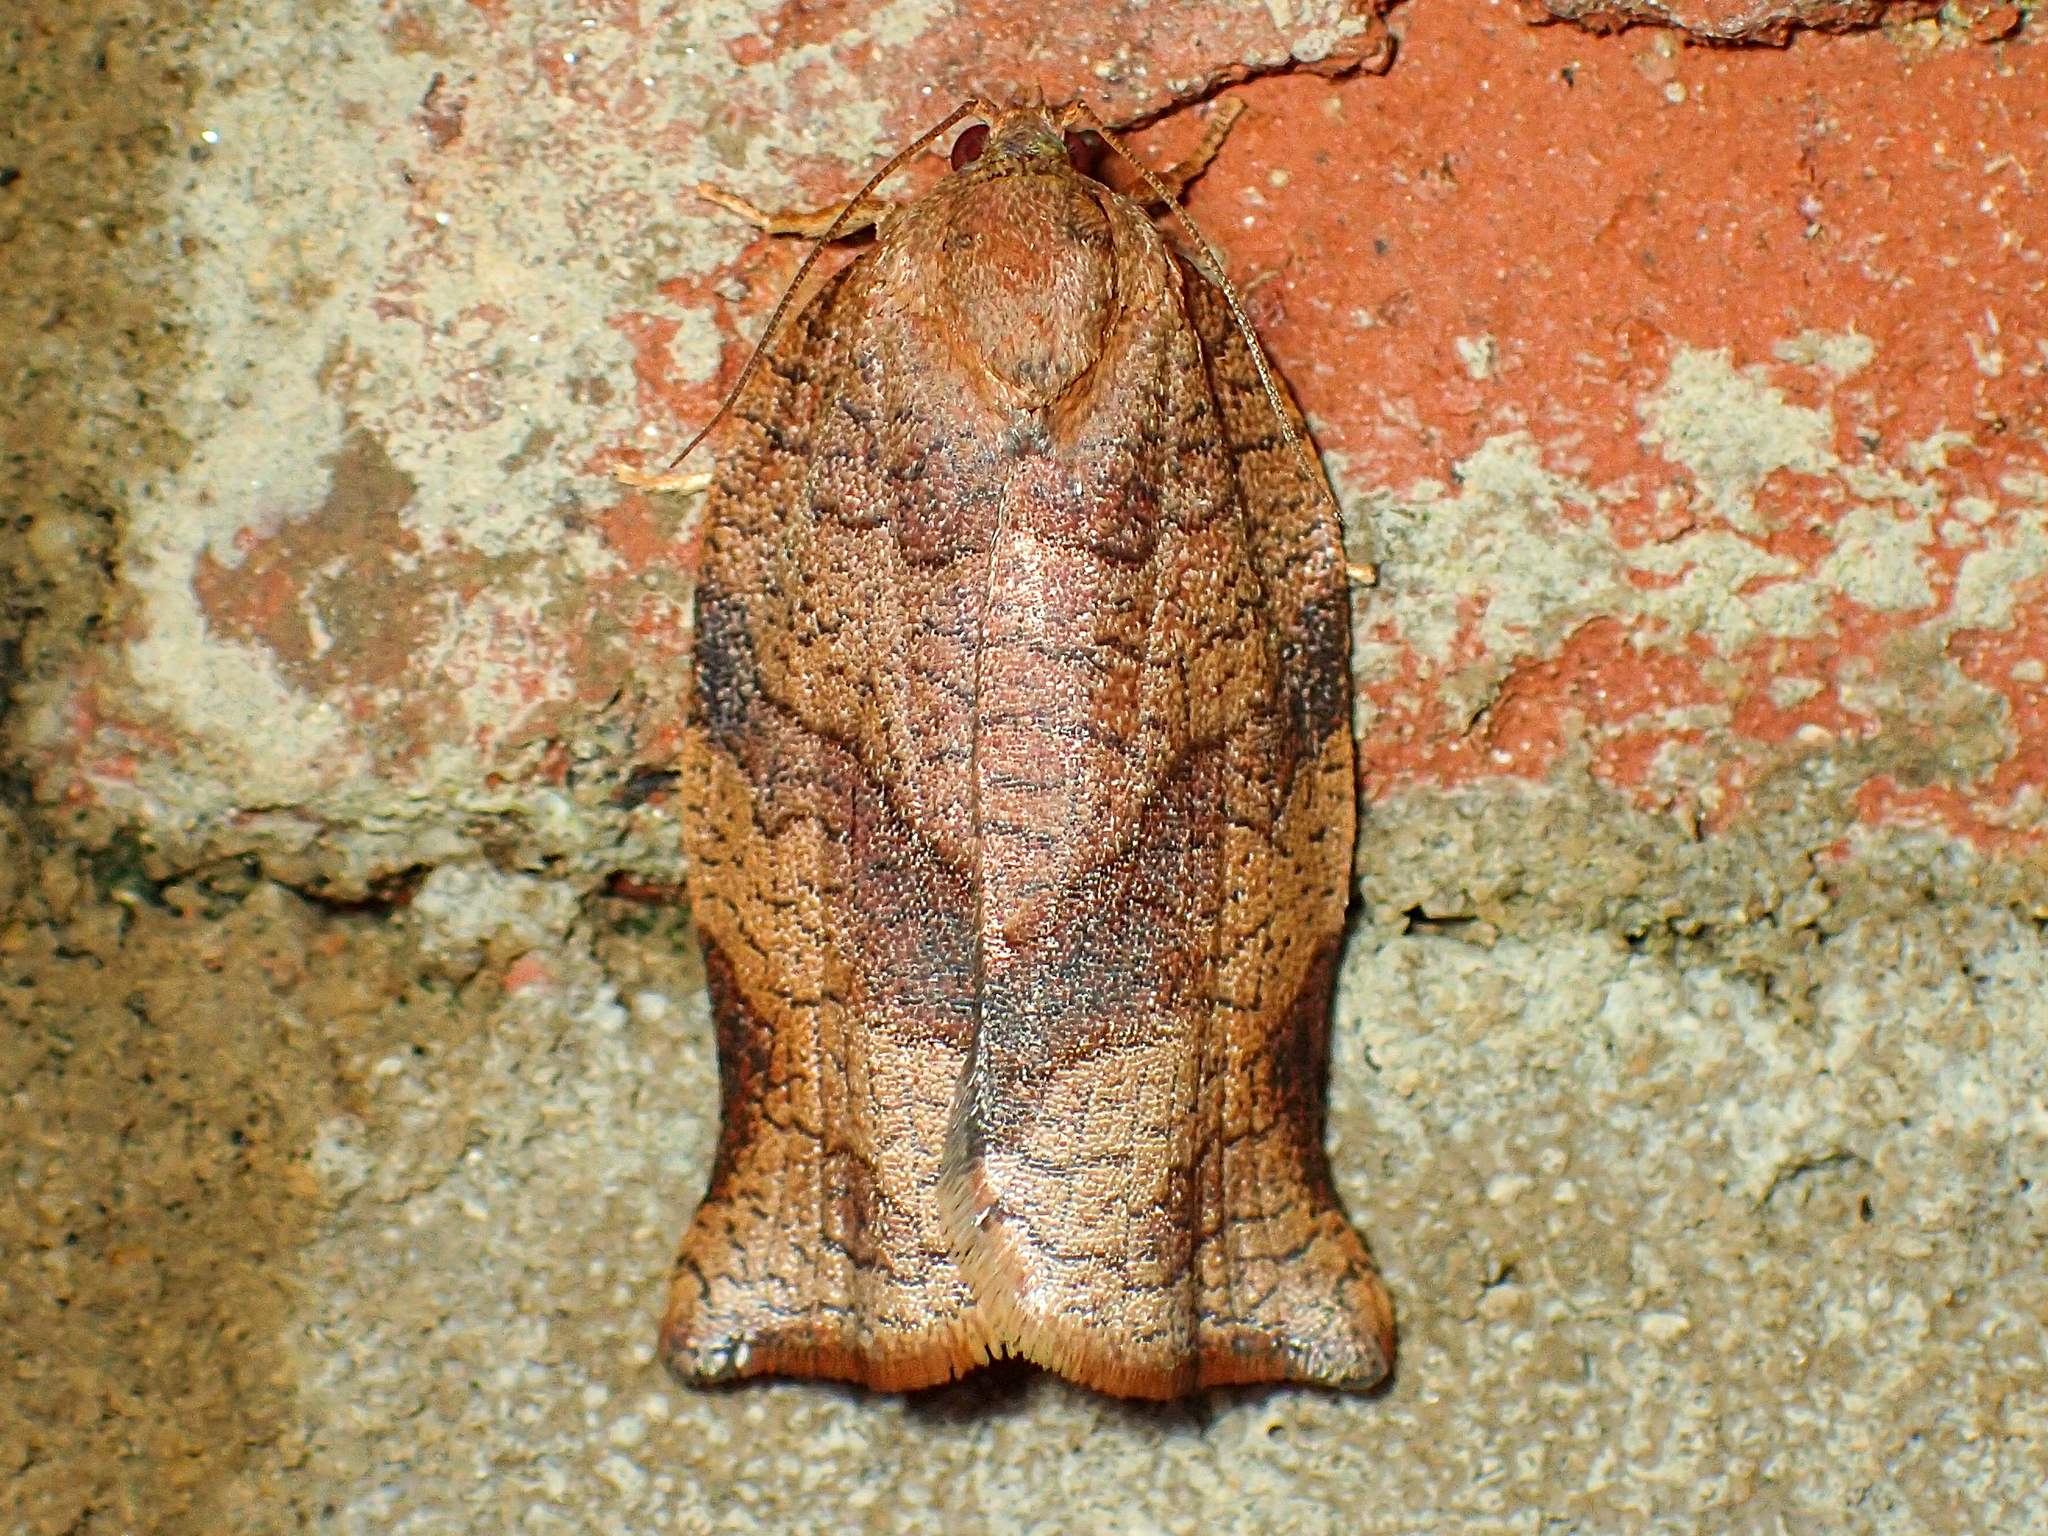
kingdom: Animalia
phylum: Arthropoda
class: Insecta
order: Lepidoptera
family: Tortricidae
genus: Choristoneura
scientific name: Choristoneura rosaceana
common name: Oblique-banded leafroller moth
